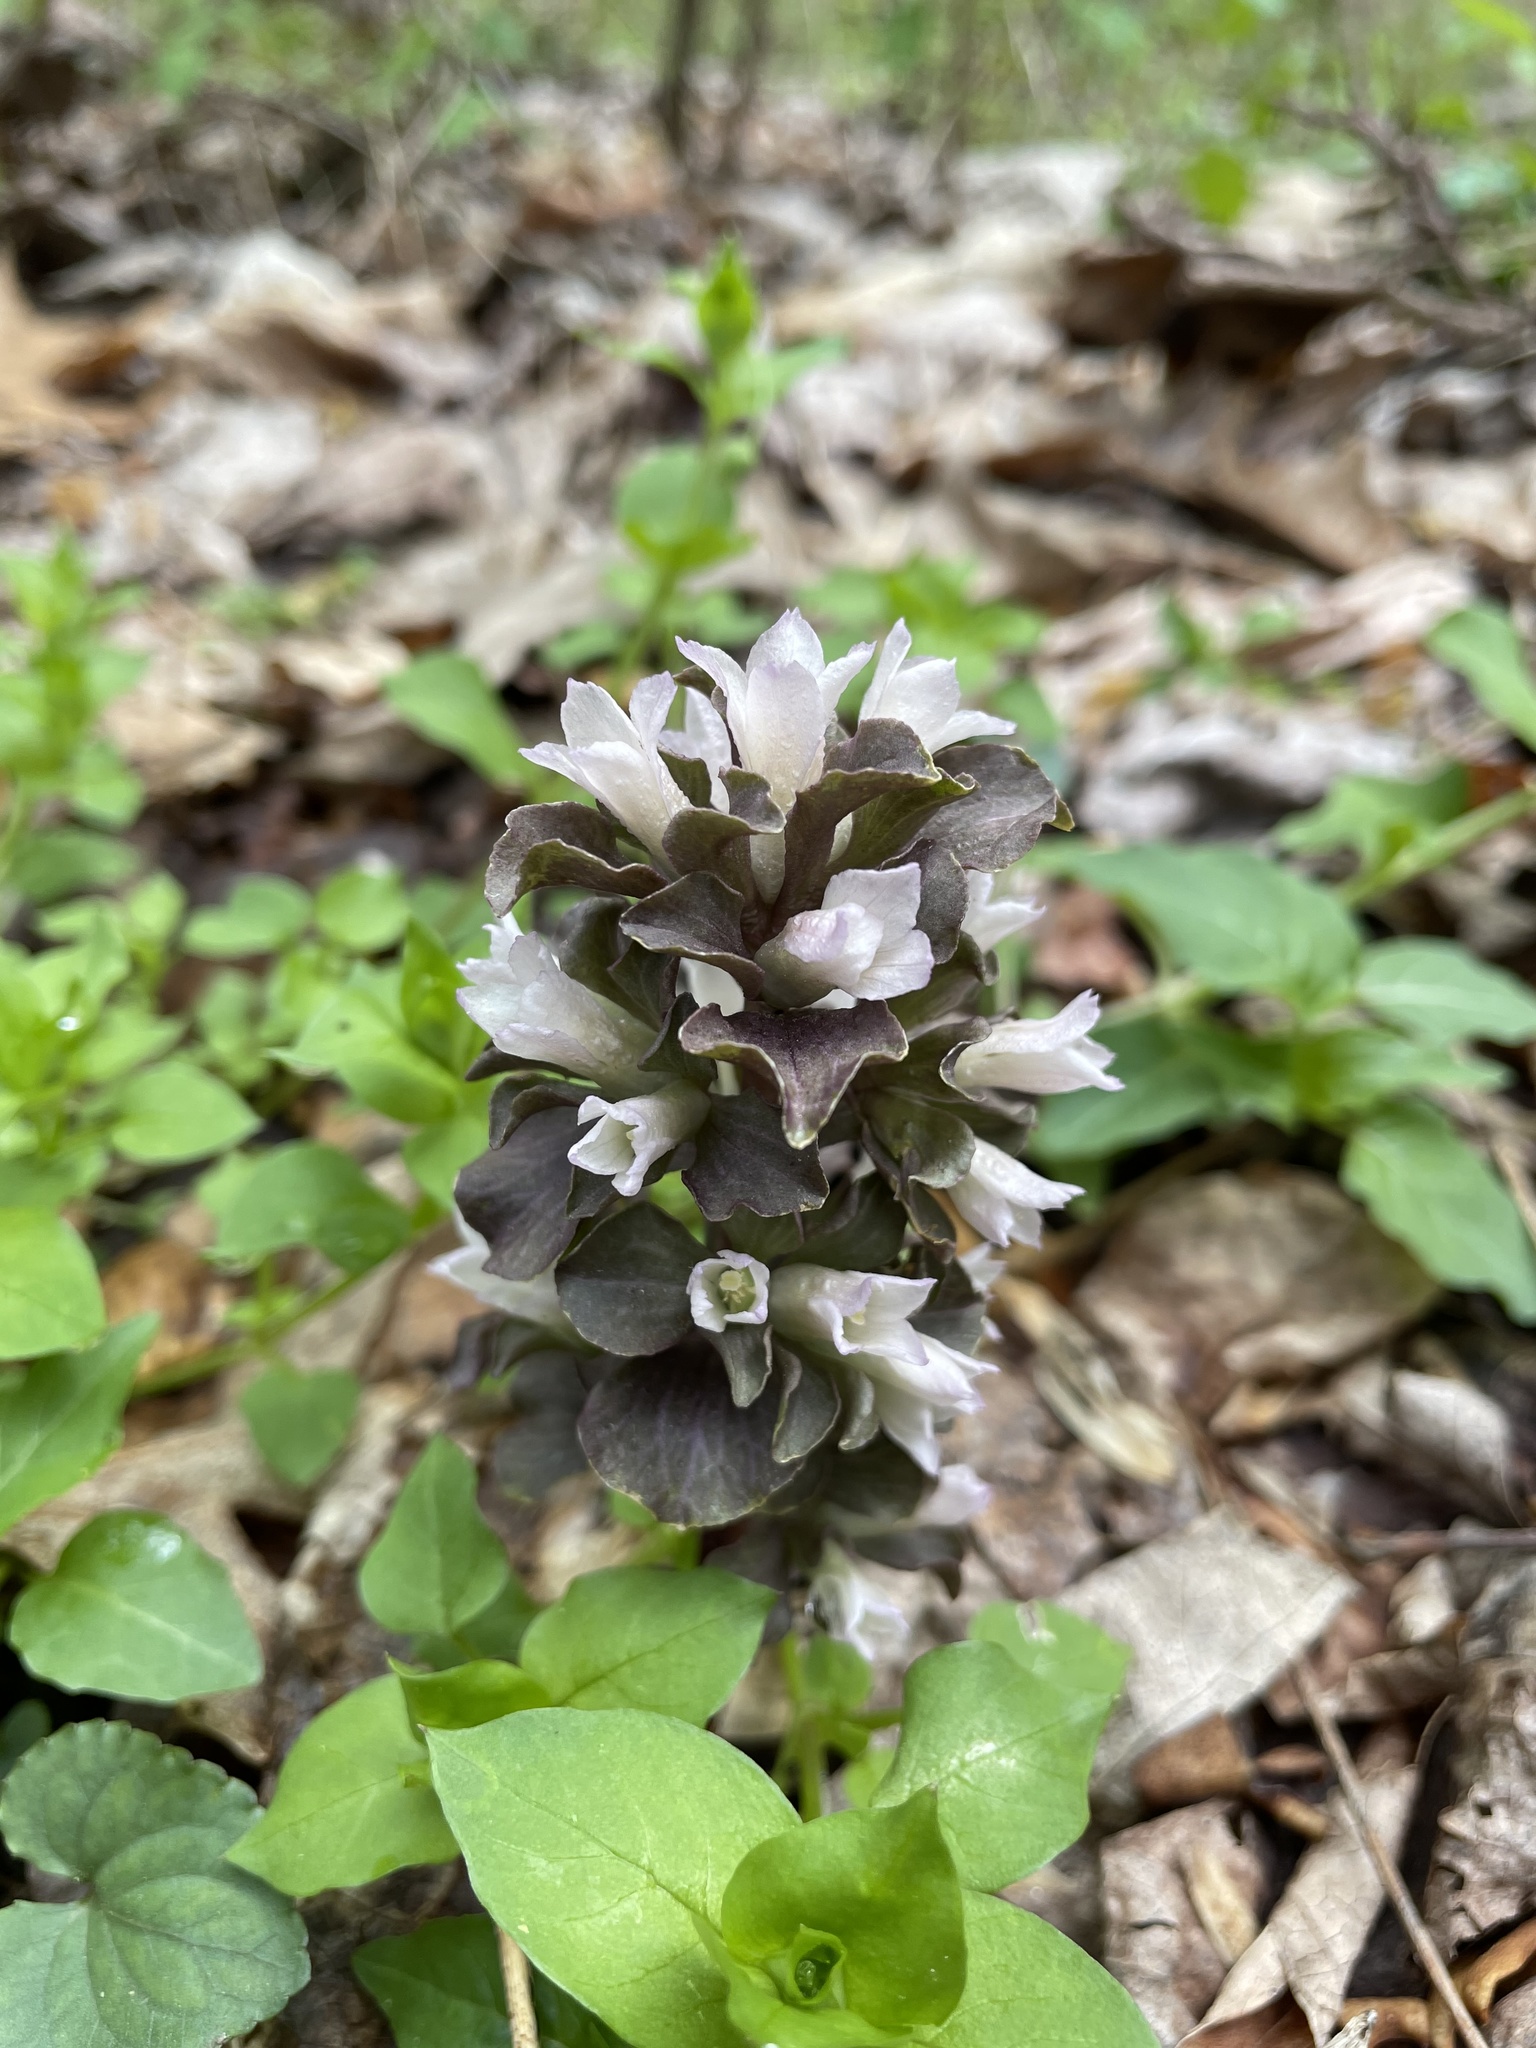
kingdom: Plantae
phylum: Tracheophyta
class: Magnoliopsida
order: Gentianales
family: Gentianaceae
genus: Obolaria
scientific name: Obolaria virginica
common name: Pennywort
